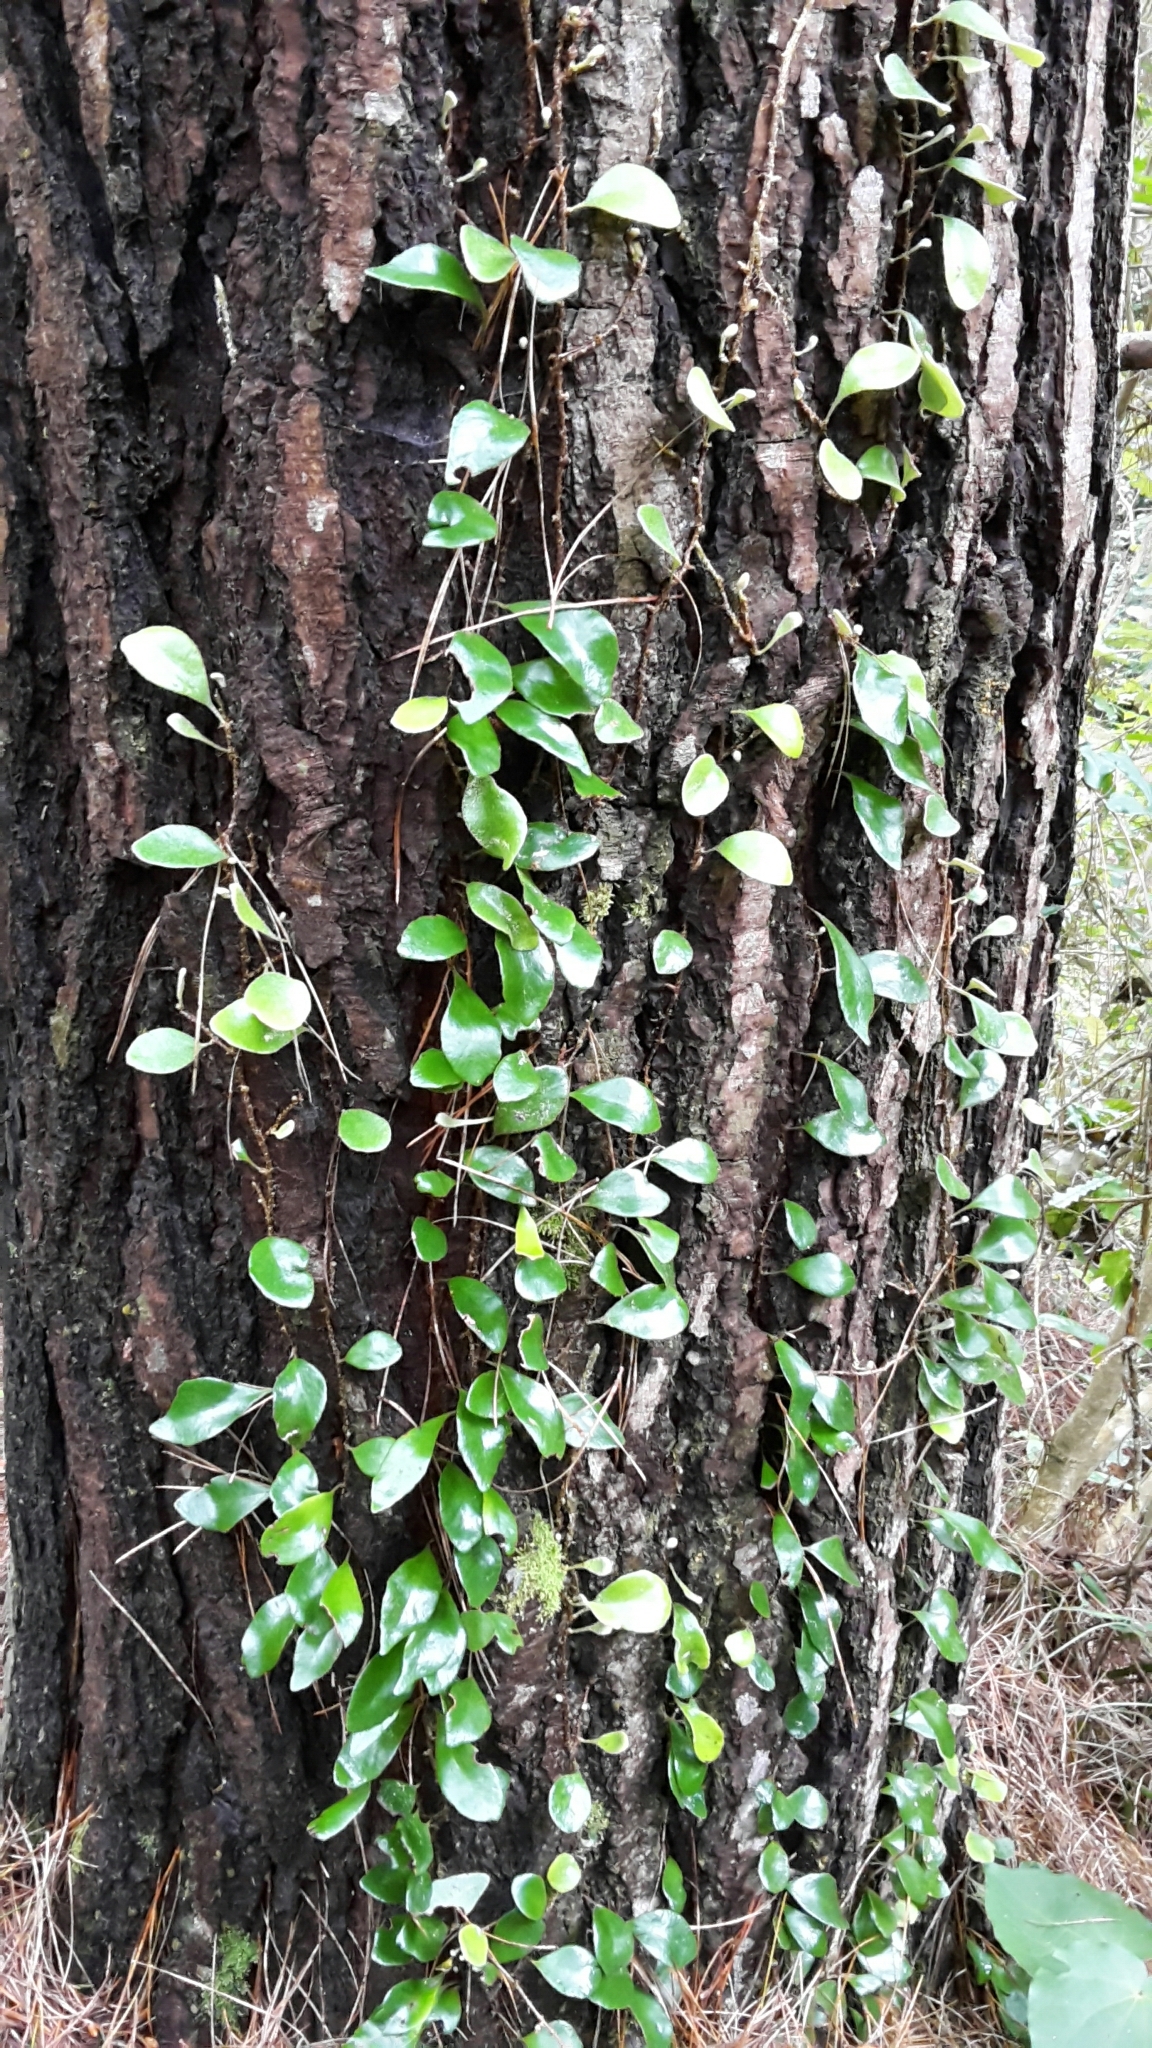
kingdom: Plantae
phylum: Tracheophyta
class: Polypodiopsida
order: Polypodiales
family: Polypodiaceae
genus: Pyrrosia
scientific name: Pyrrosia eleagnifolia
